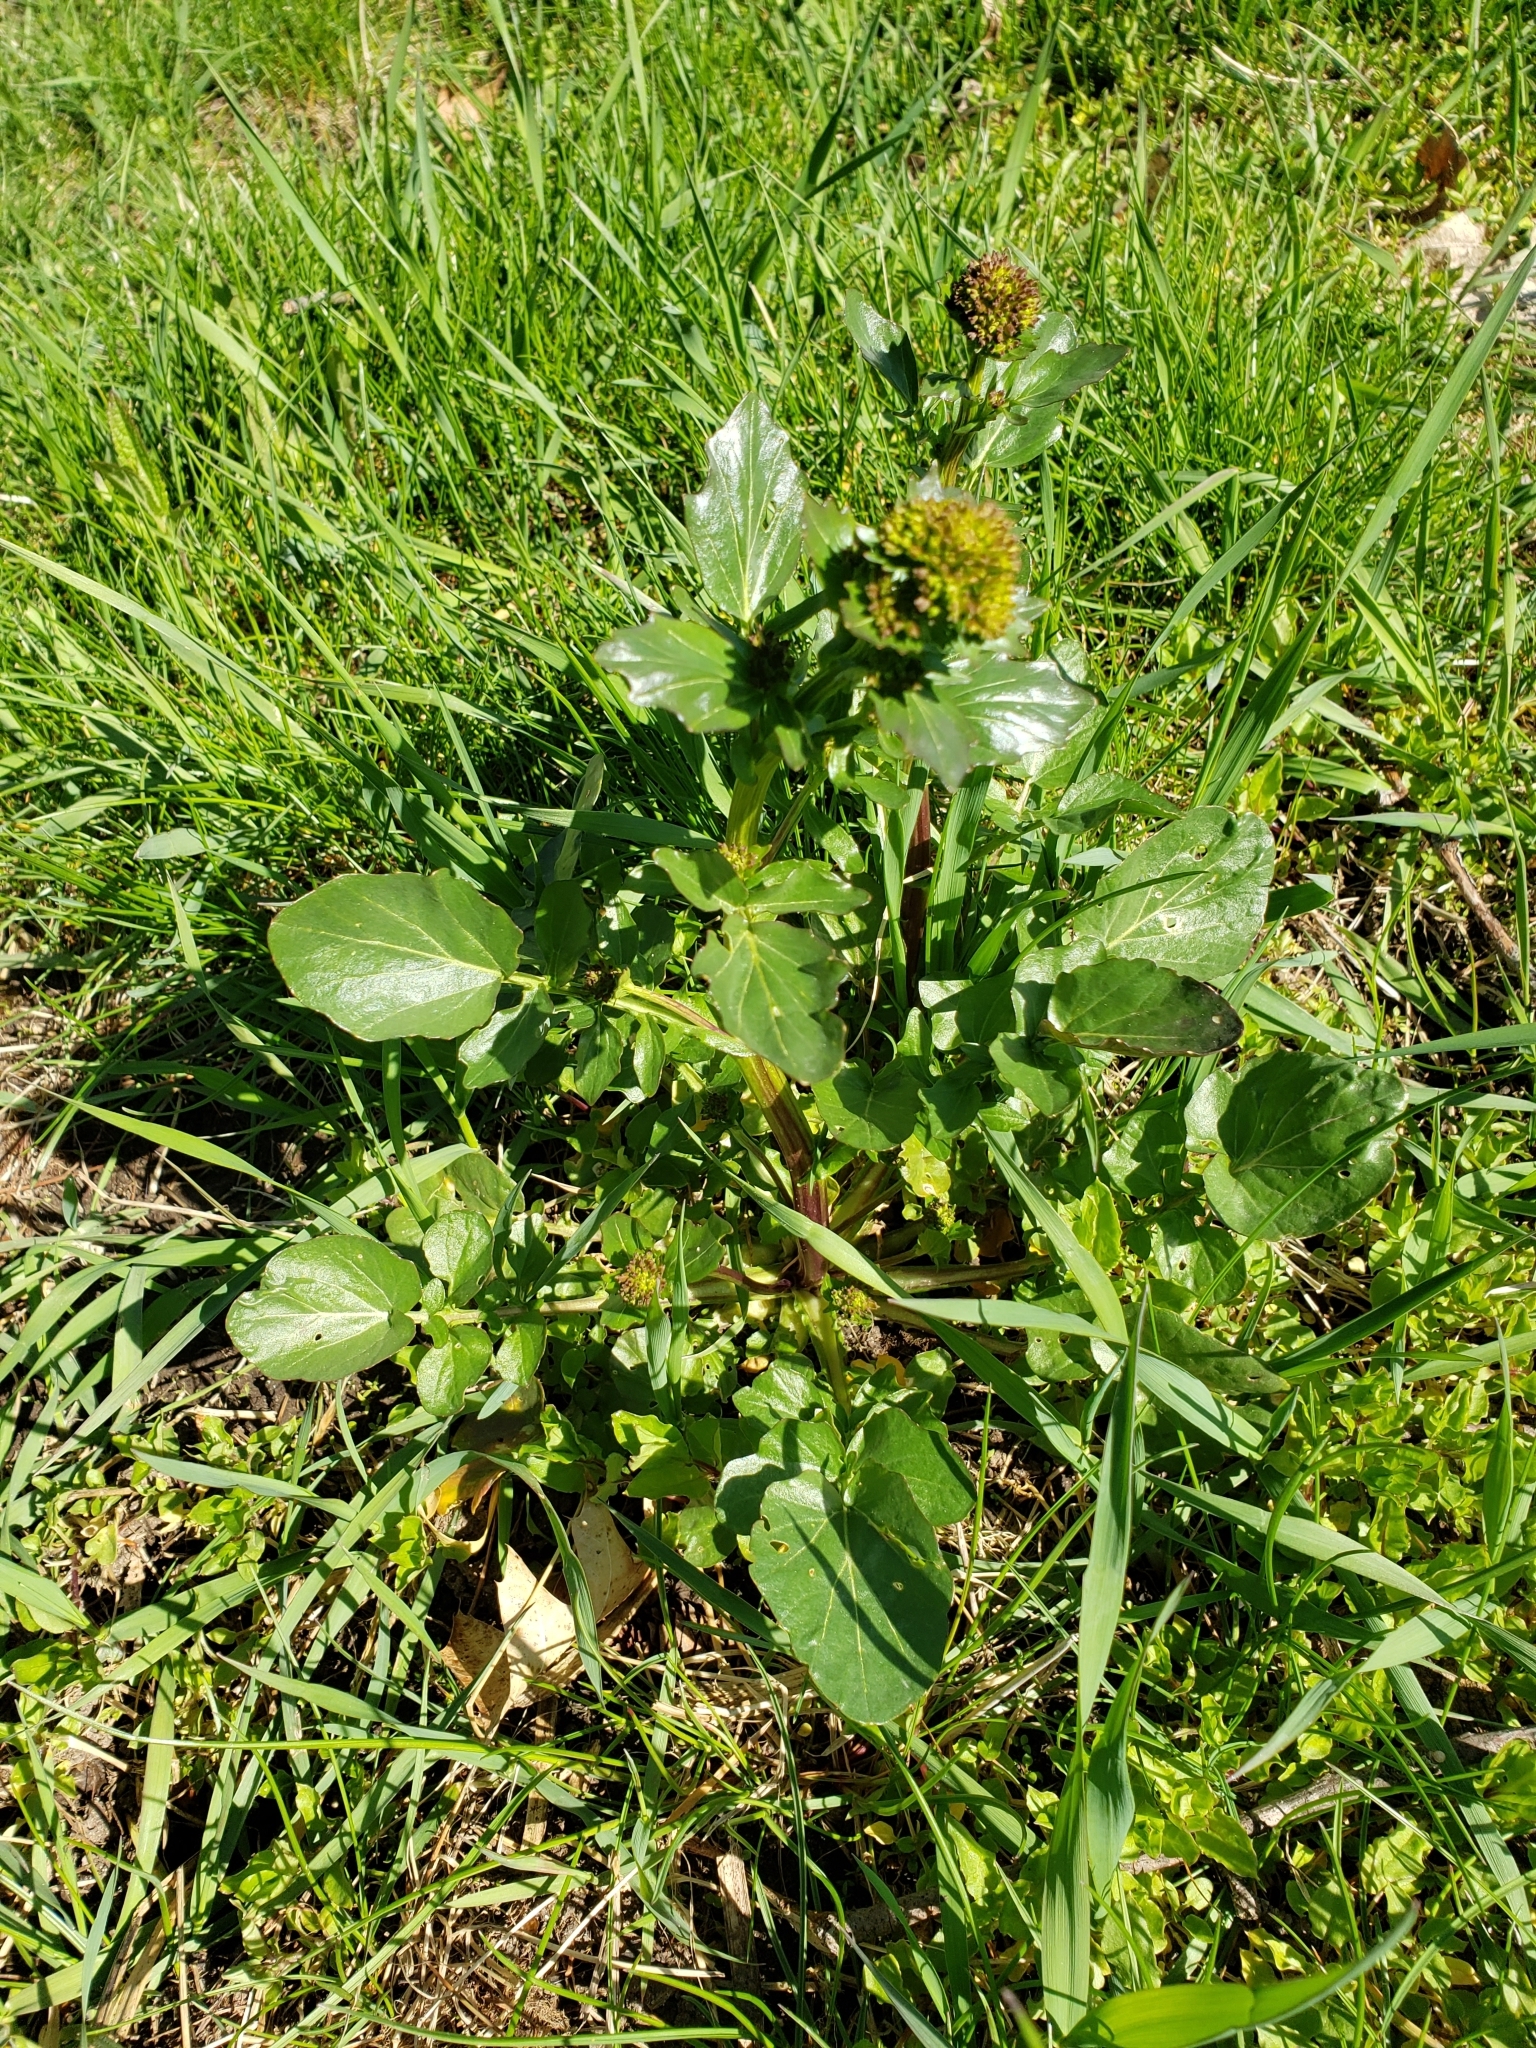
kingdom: Plantae
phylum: Tracheophyta
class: Magnoliopsida
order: Brassicales
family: Brassicaceae
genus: Barbarea
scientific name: Barbarea vulgaris
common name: Cressy-greens
